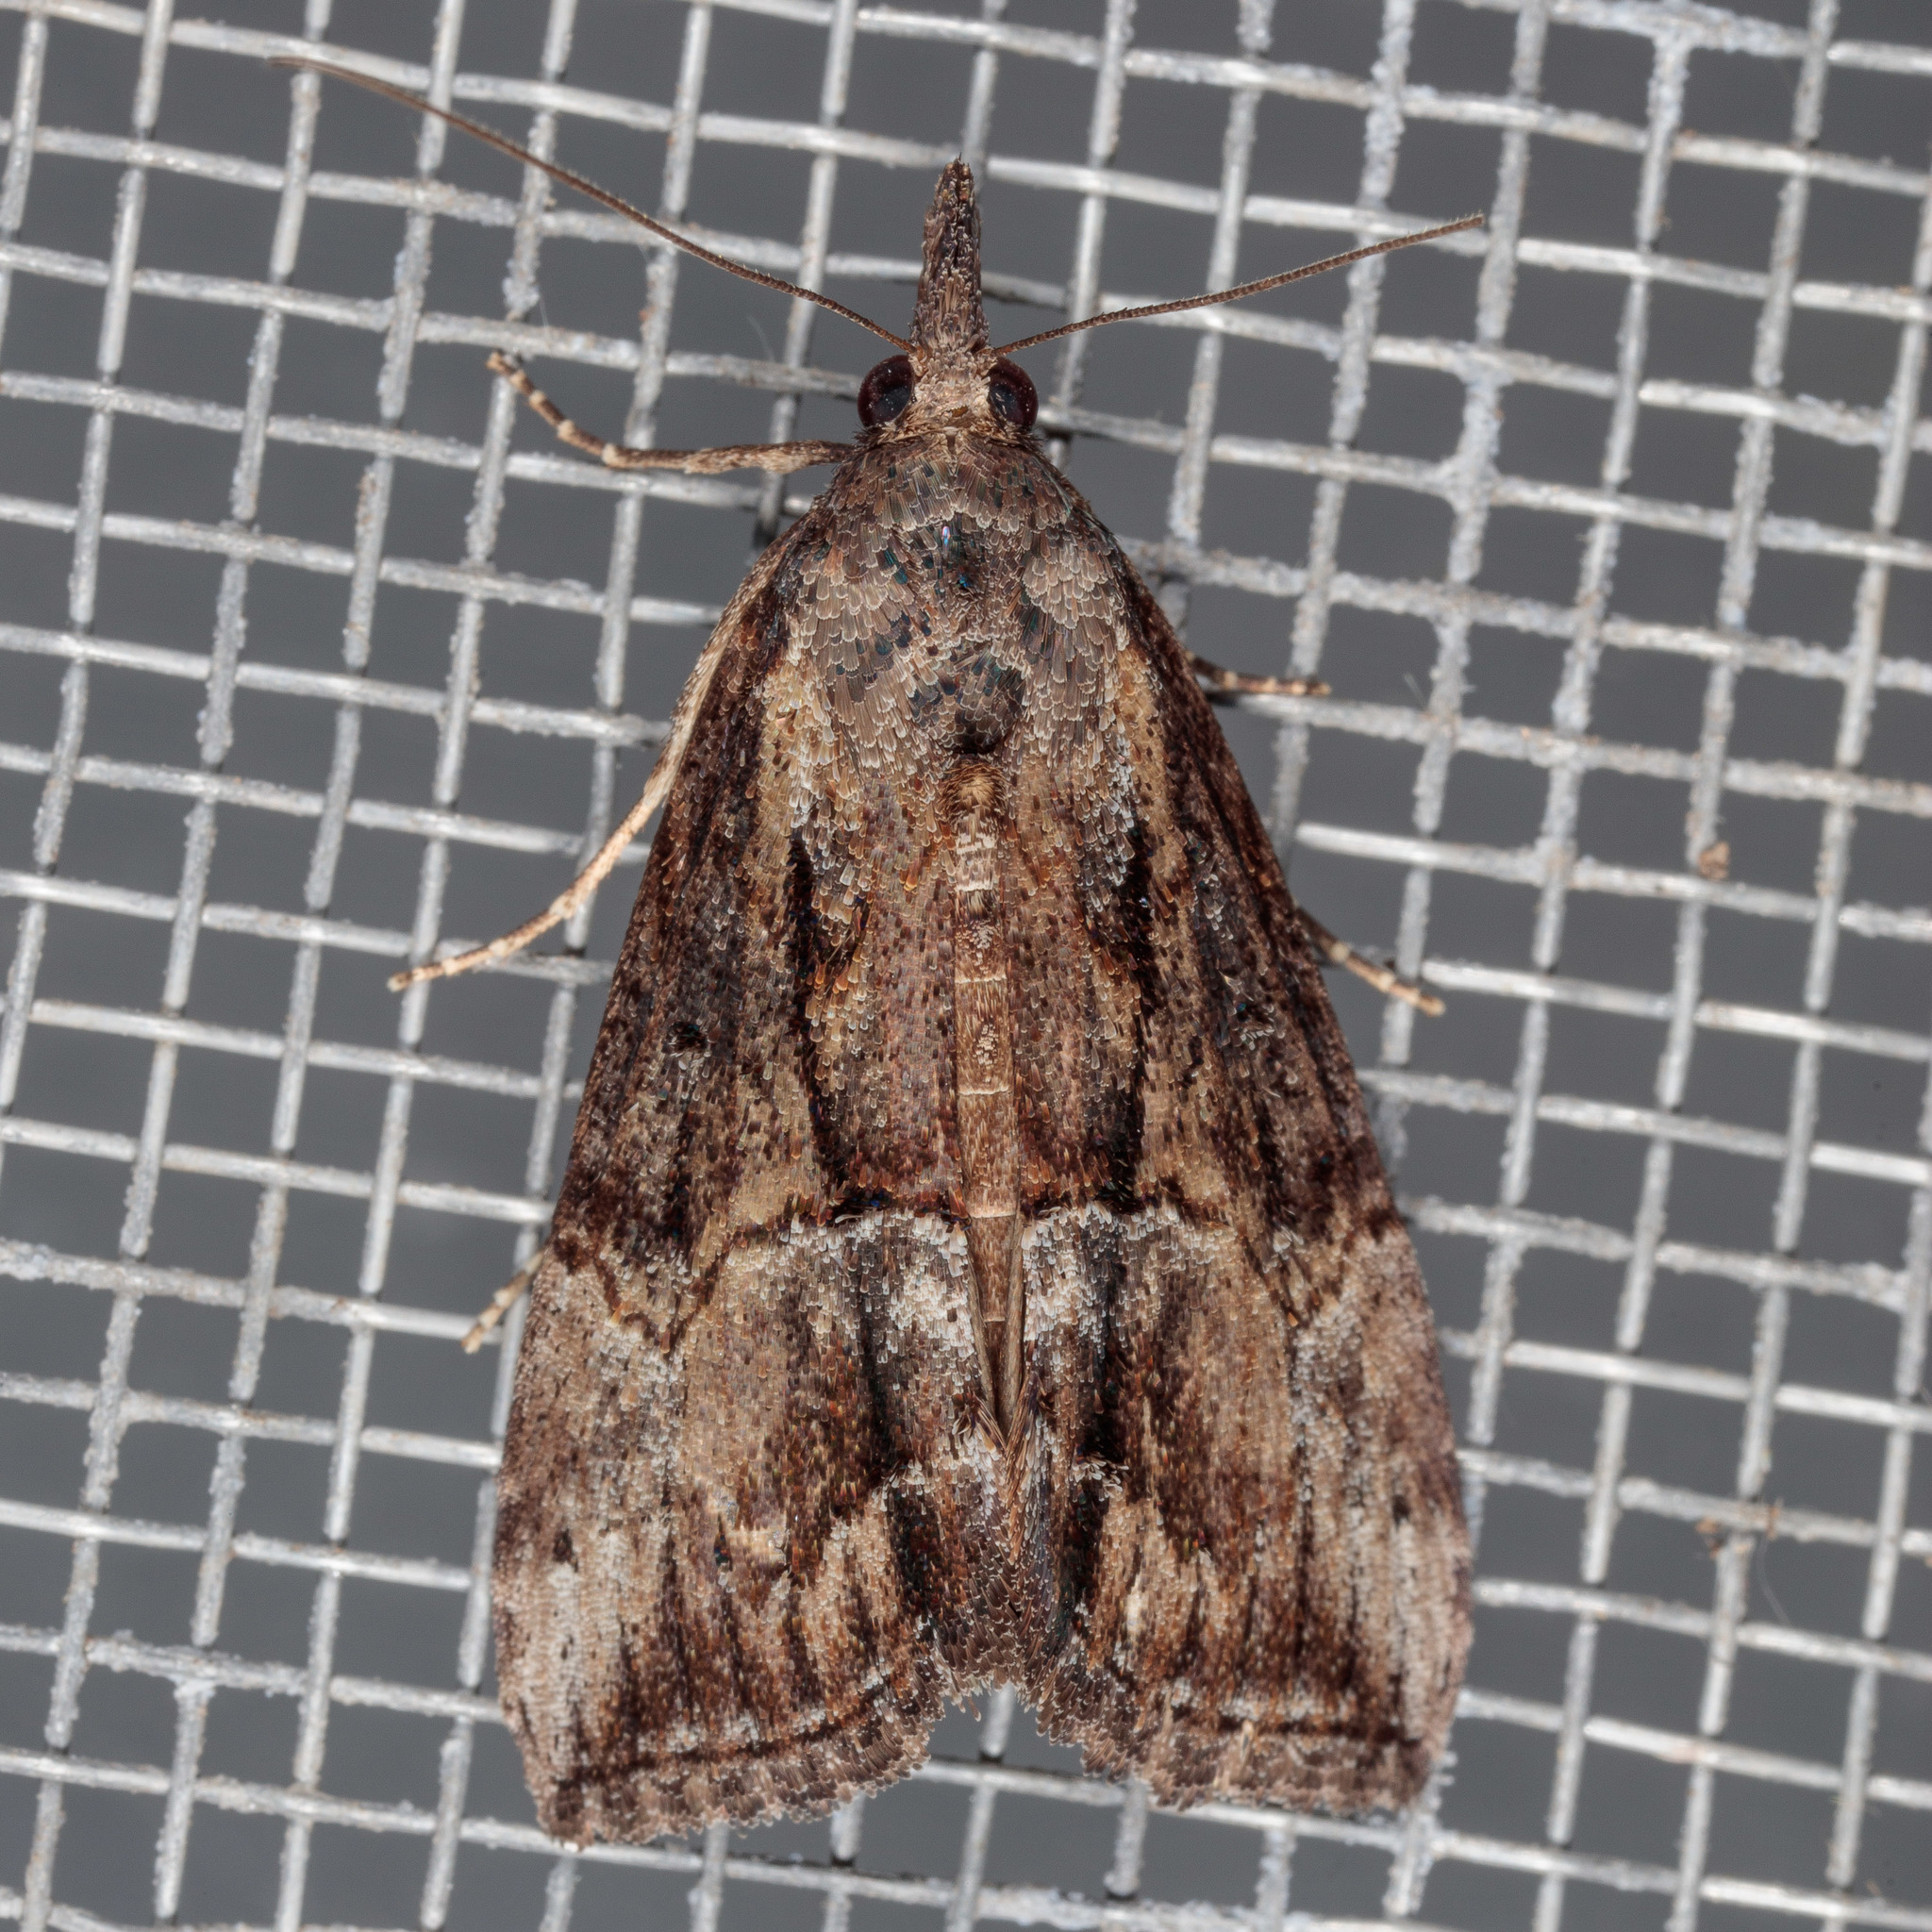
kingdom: Animalia
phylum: Arthropoda
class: Insecta
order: Lepidoptera
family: Erebidae
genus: Hypena
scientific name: Hypena scabra
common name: Green cloverworm
